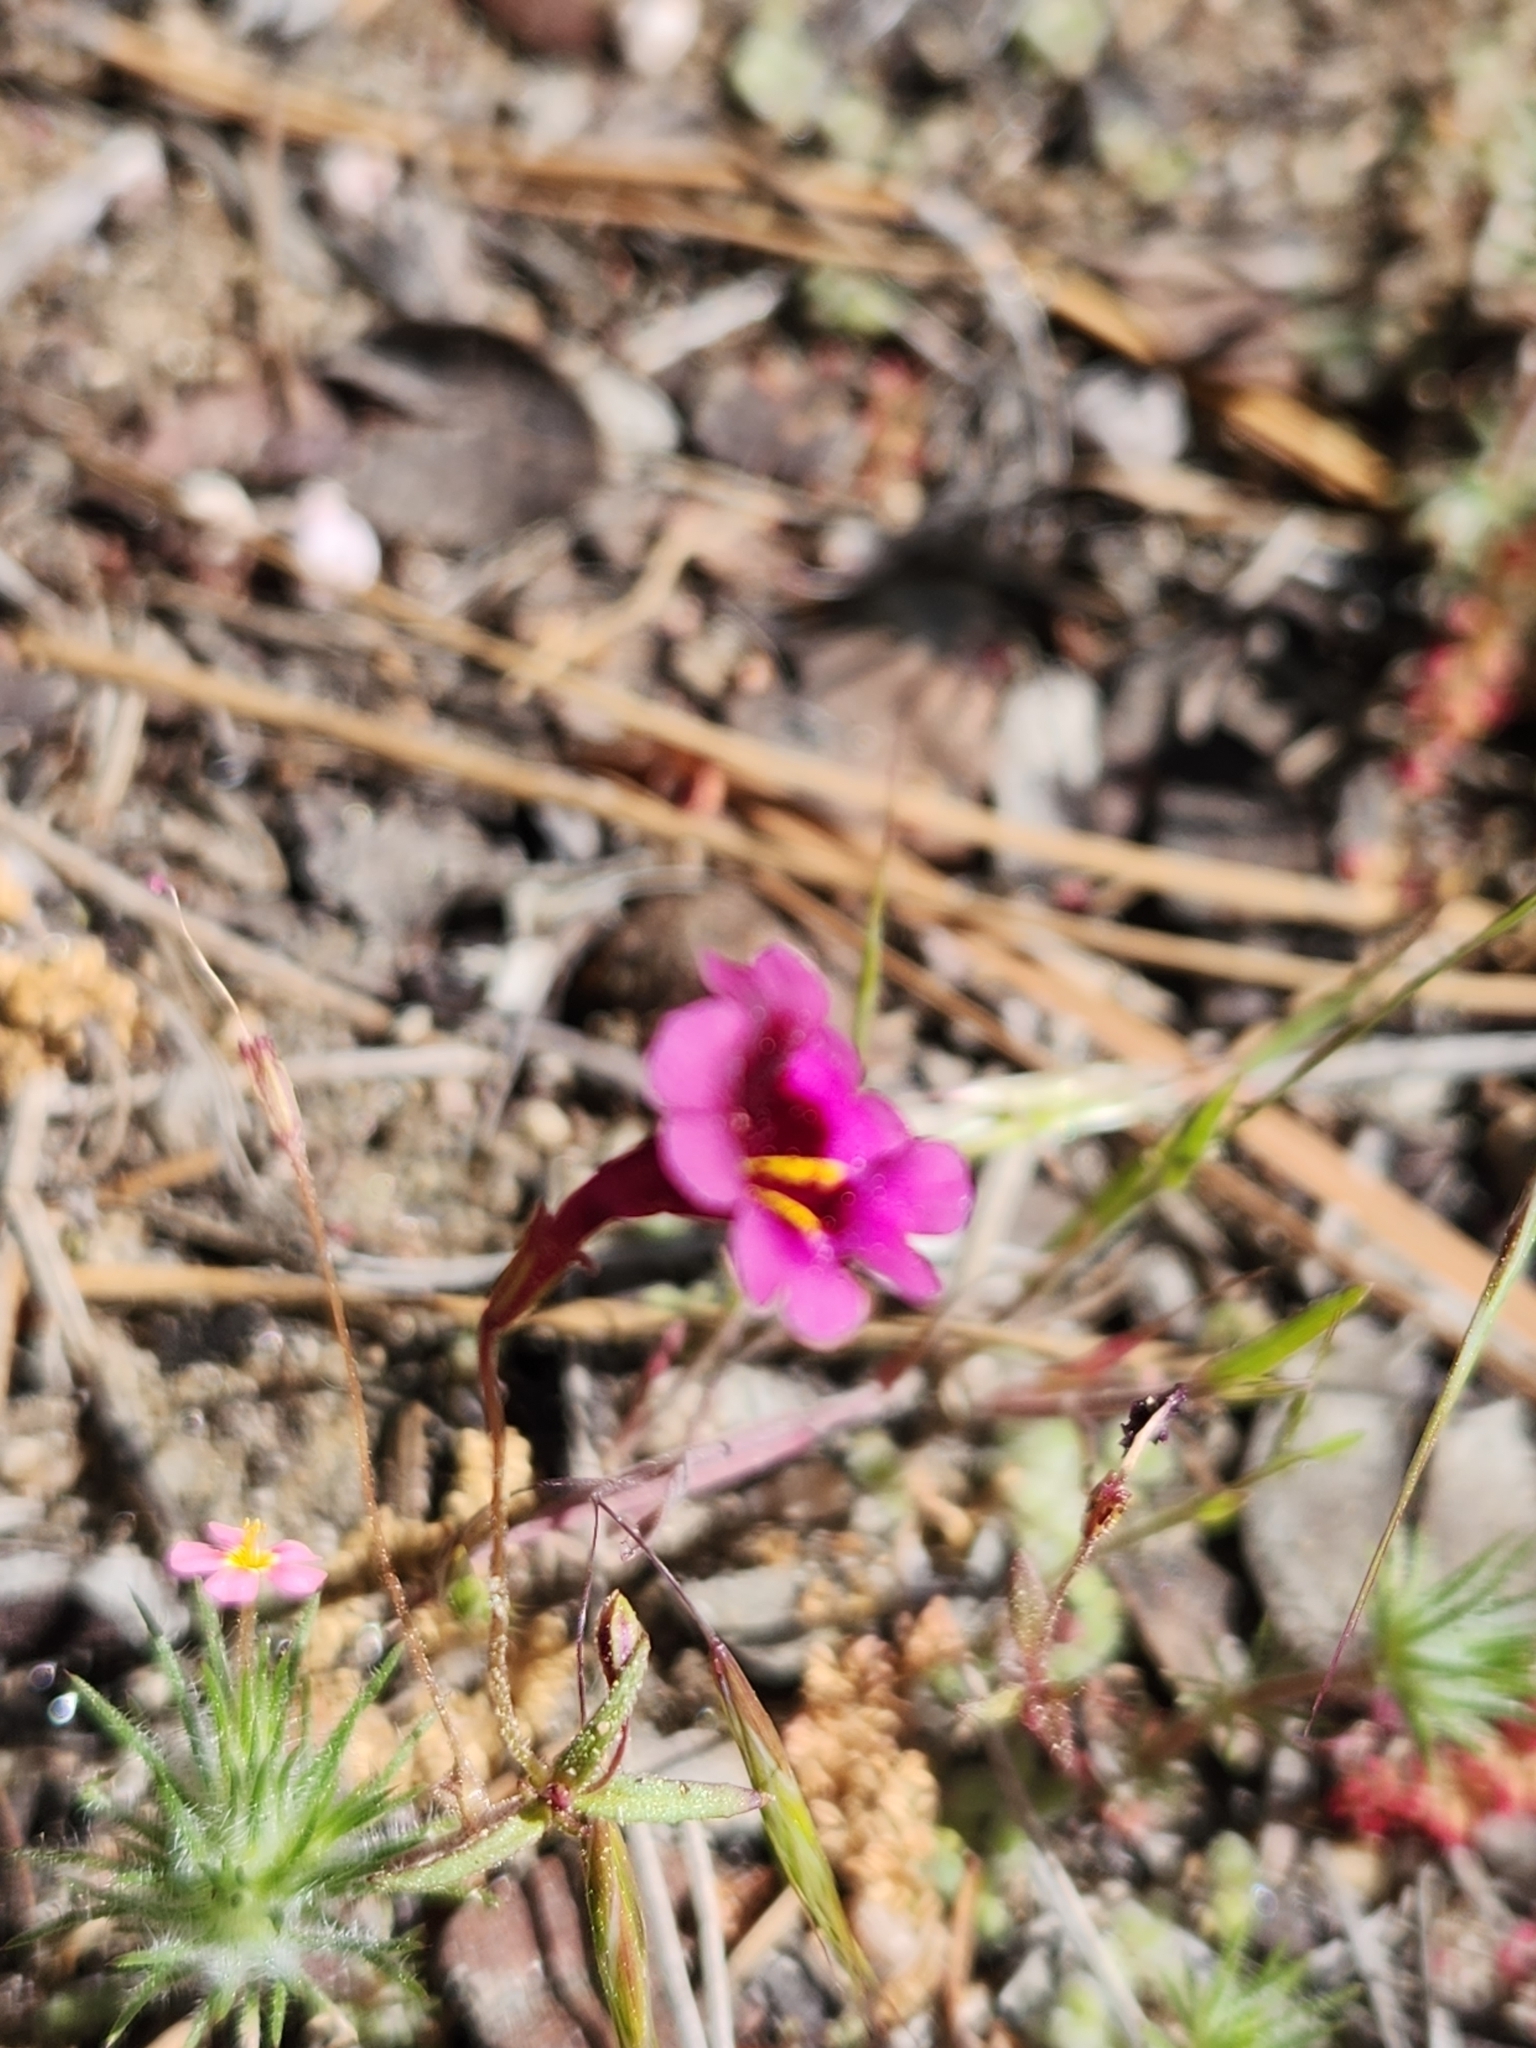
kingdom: Plantae
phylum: Tracheophyta
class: Magnoliopsida
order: Lamiales
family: Phrymaceae
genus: Erythranthe
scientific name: Erythranthe diffusa
